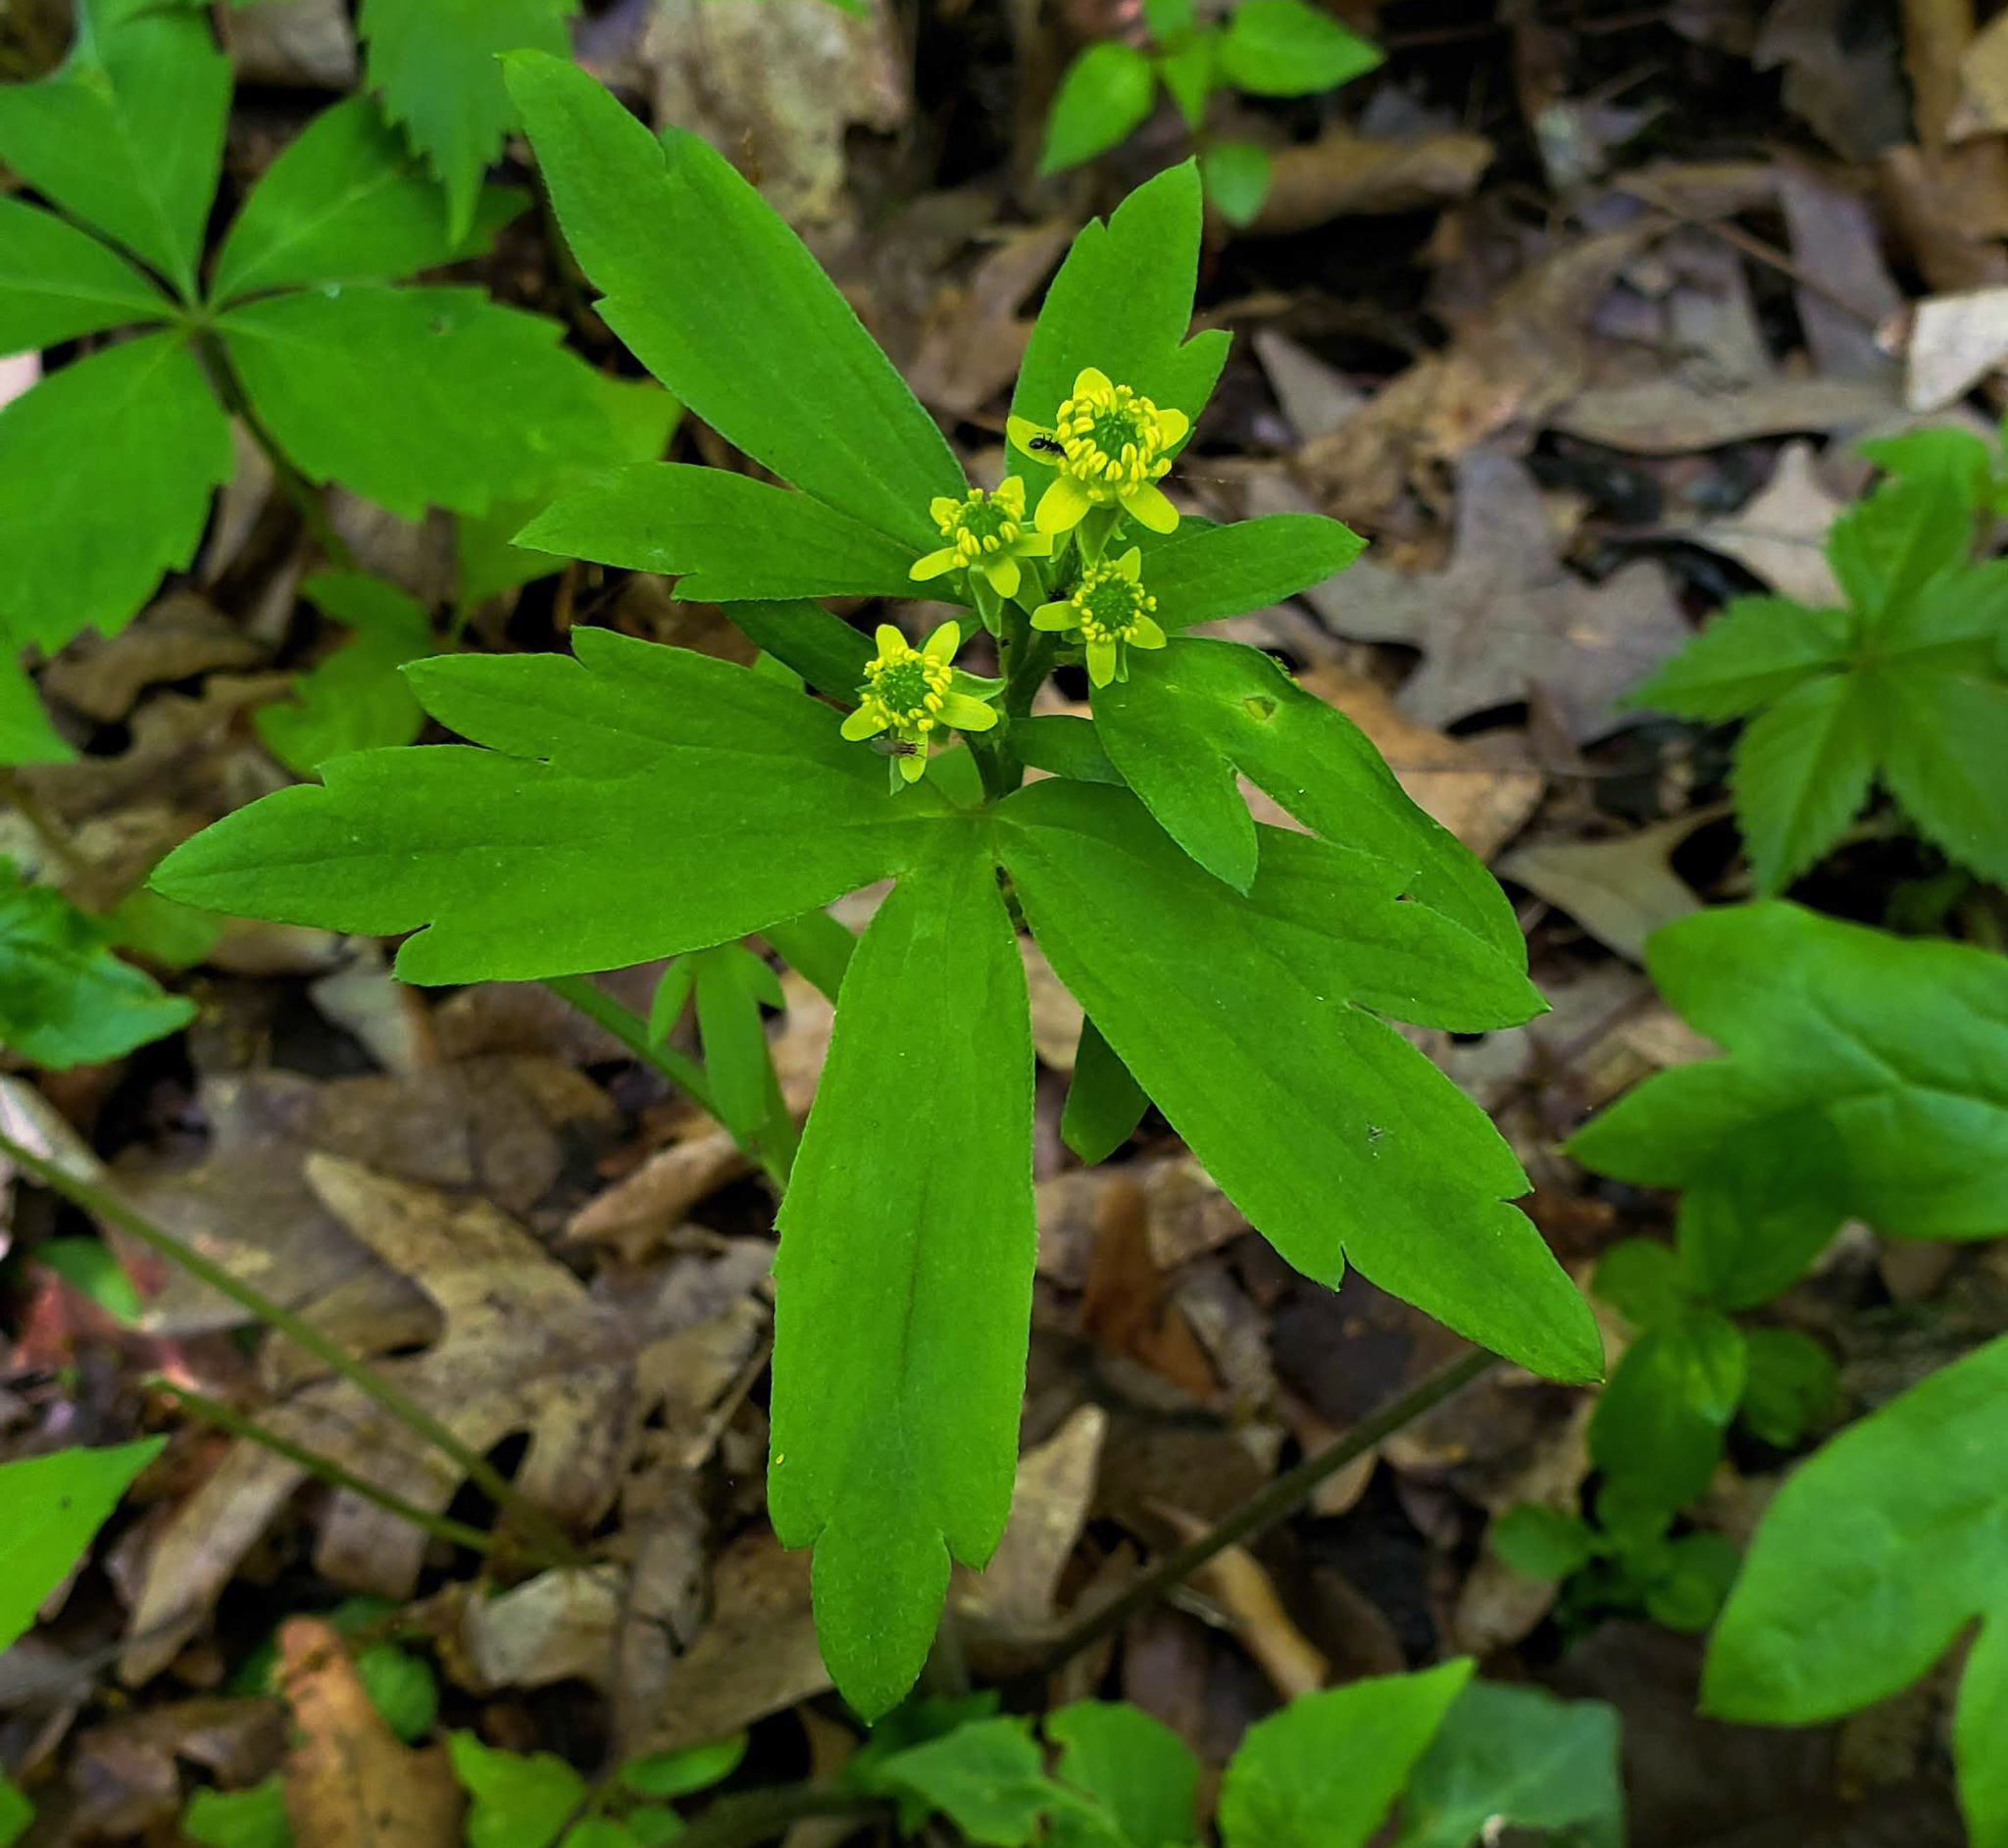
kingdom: Plantae
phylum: Tracheophyta
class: Magnoliopsida
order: Ranunculales
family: Ranunculaceae
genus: Ranunculus
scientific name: Ranunculus recurvatus
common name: Blisterwort
